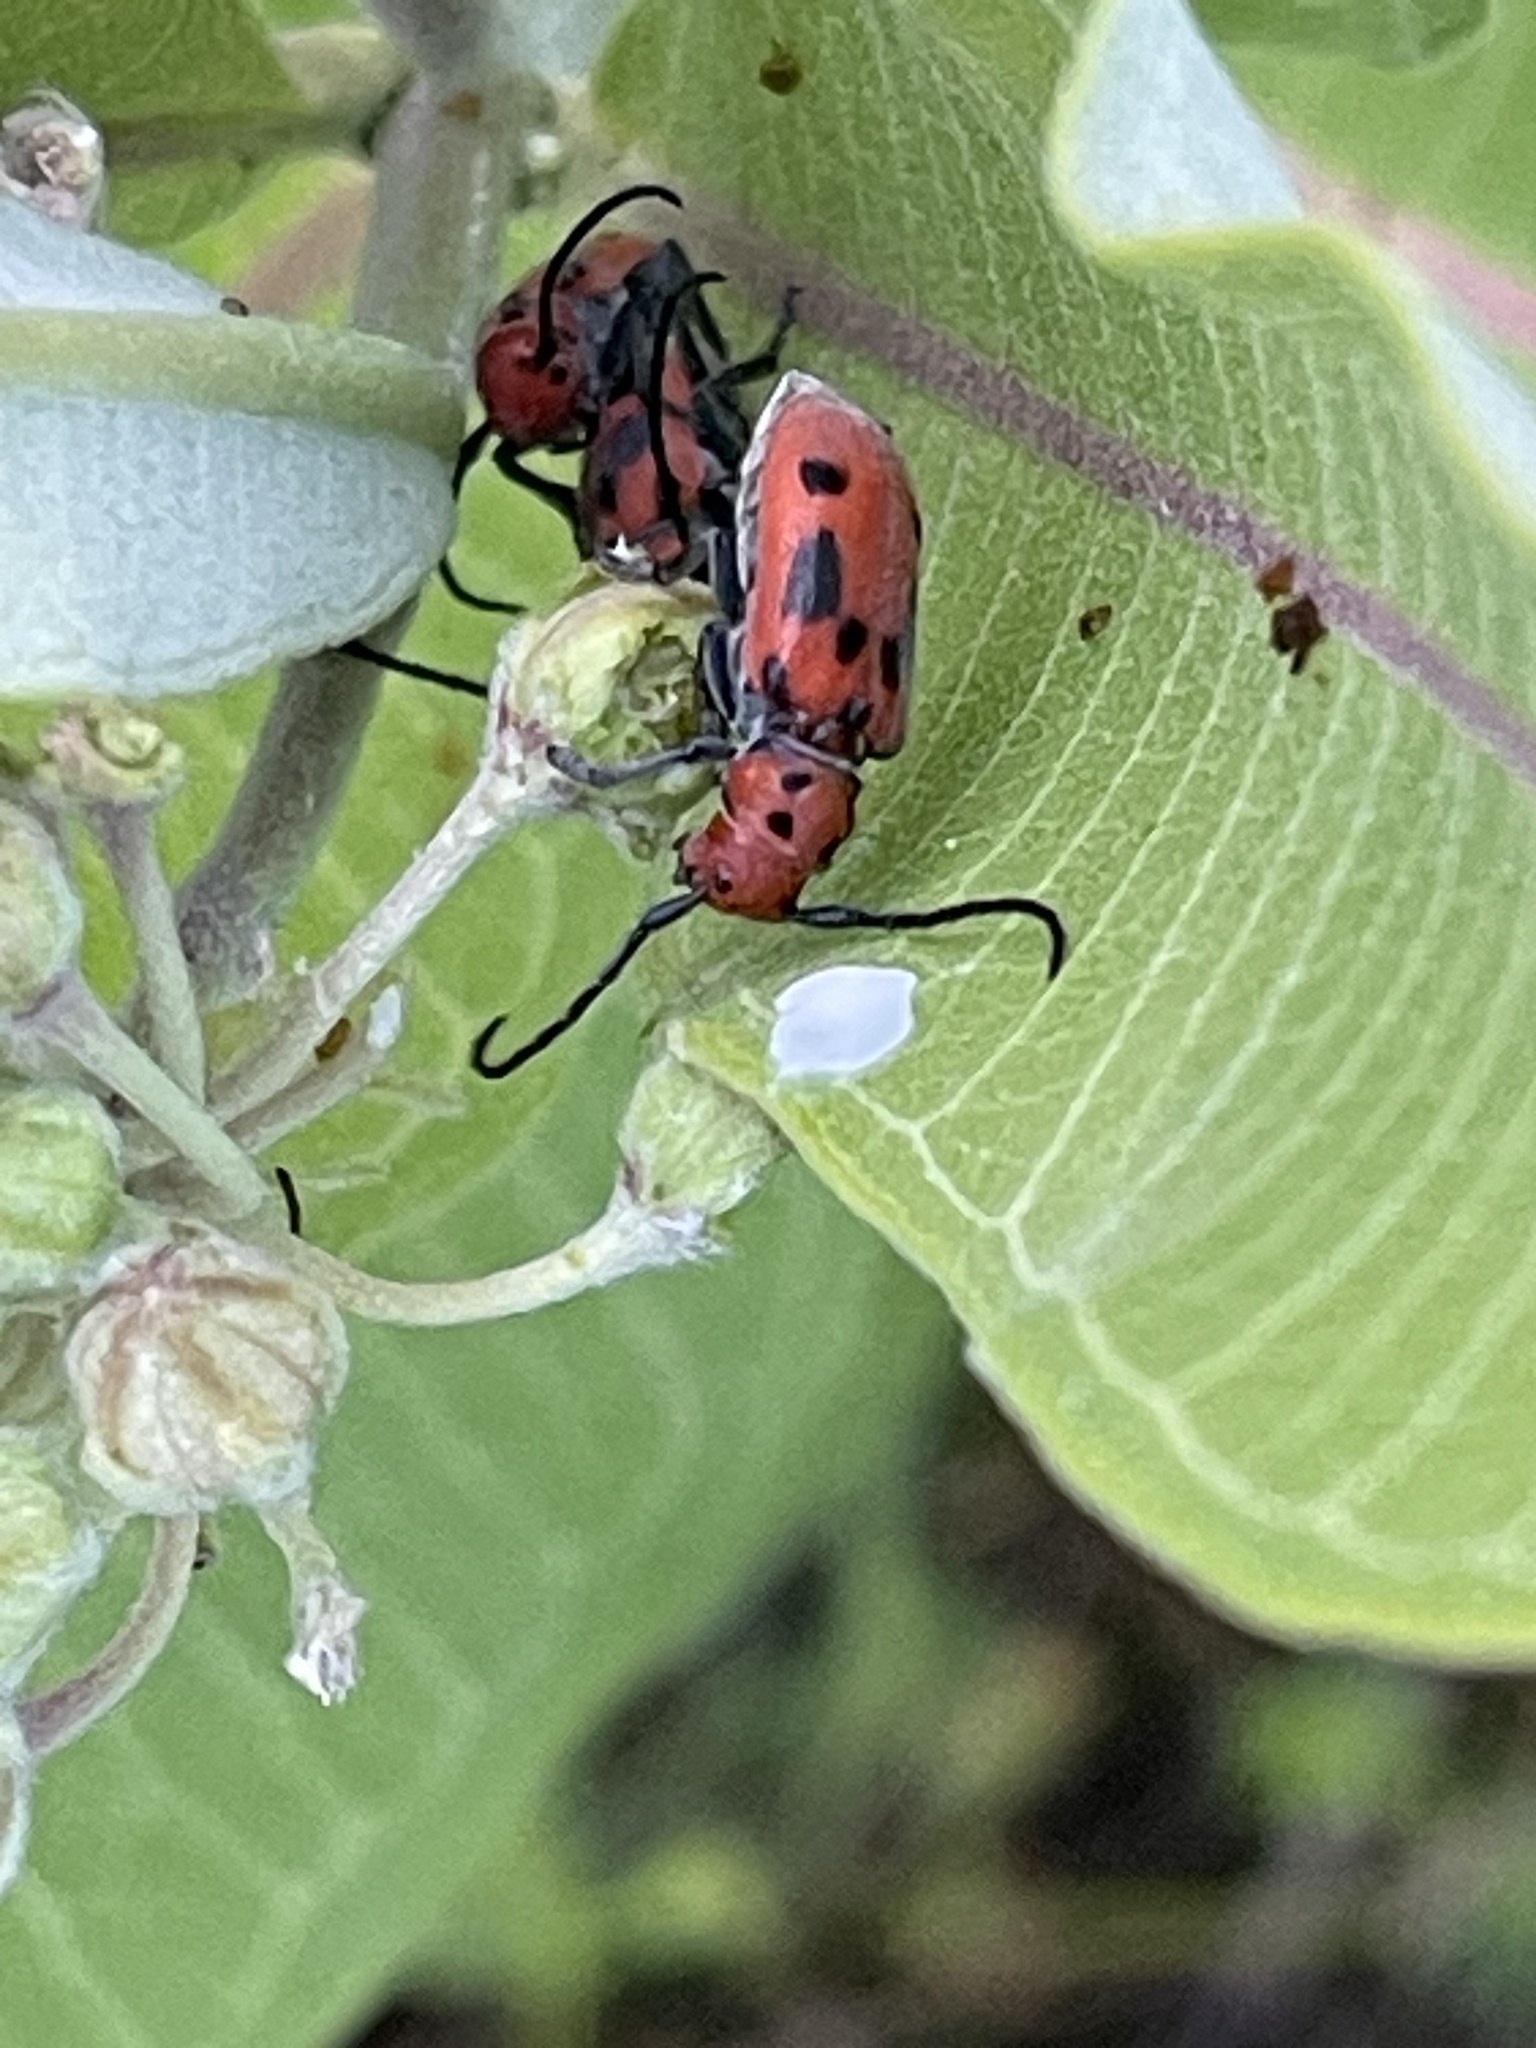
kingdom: Animalia
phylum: Arthropoda
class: Insecta
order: Coleoptera
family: Cerambycidae
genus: Tetraopes
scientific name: Tetraopes tetrophthalmus
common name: Red milkweed beetle
